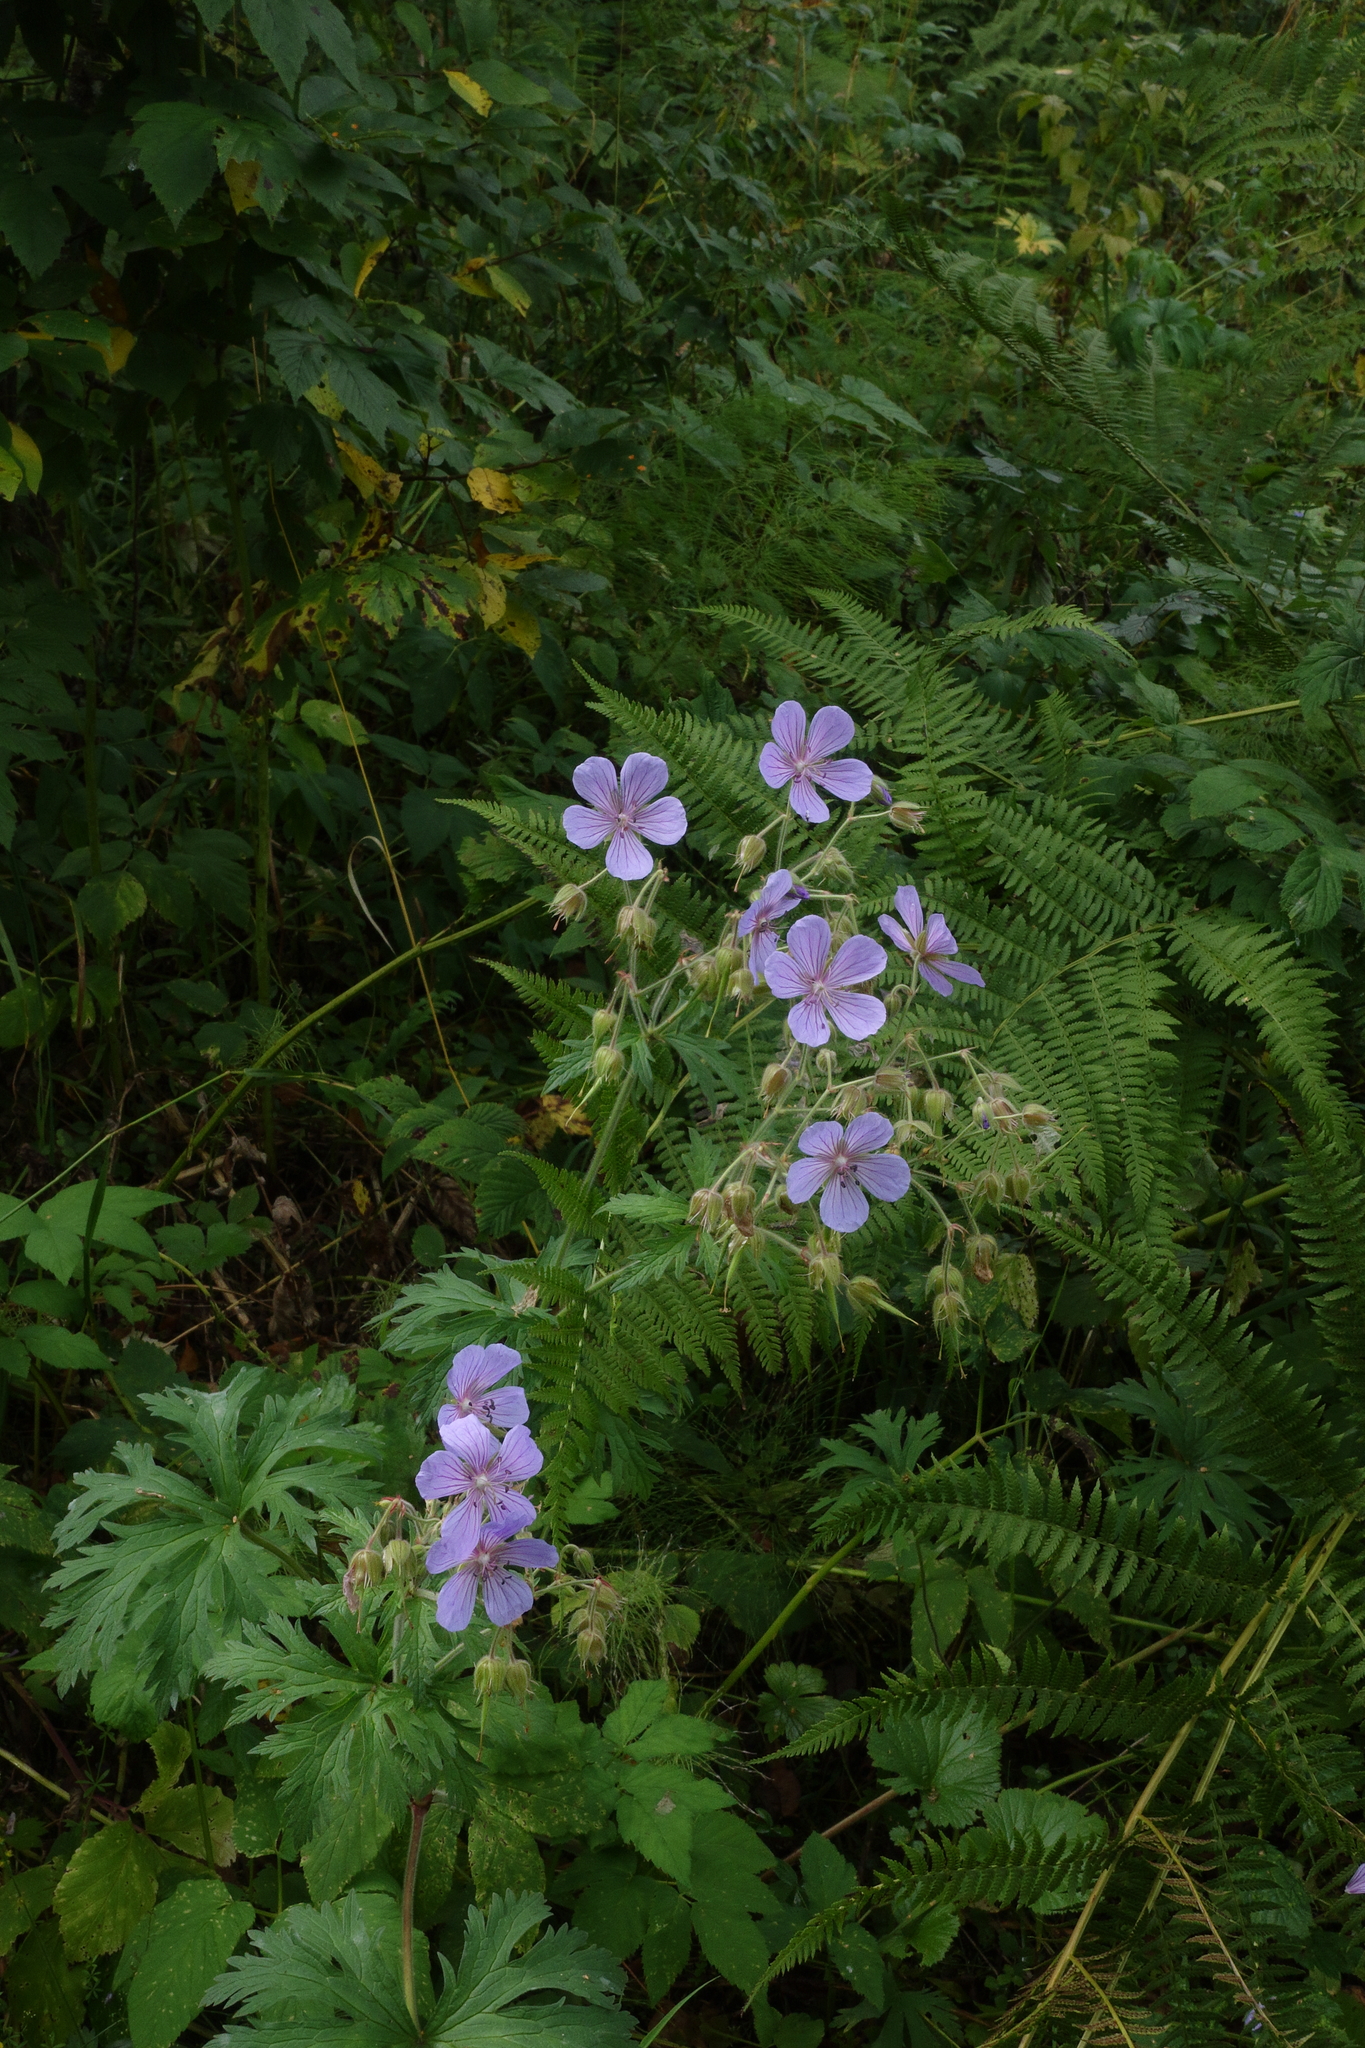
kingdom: Plantae
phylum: Tracheophyta
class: Magnoliopsida
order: Geraniales
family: Geraniaceae
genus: Geranium
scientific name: Geranium pratense
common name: Meadow crane's-bill
